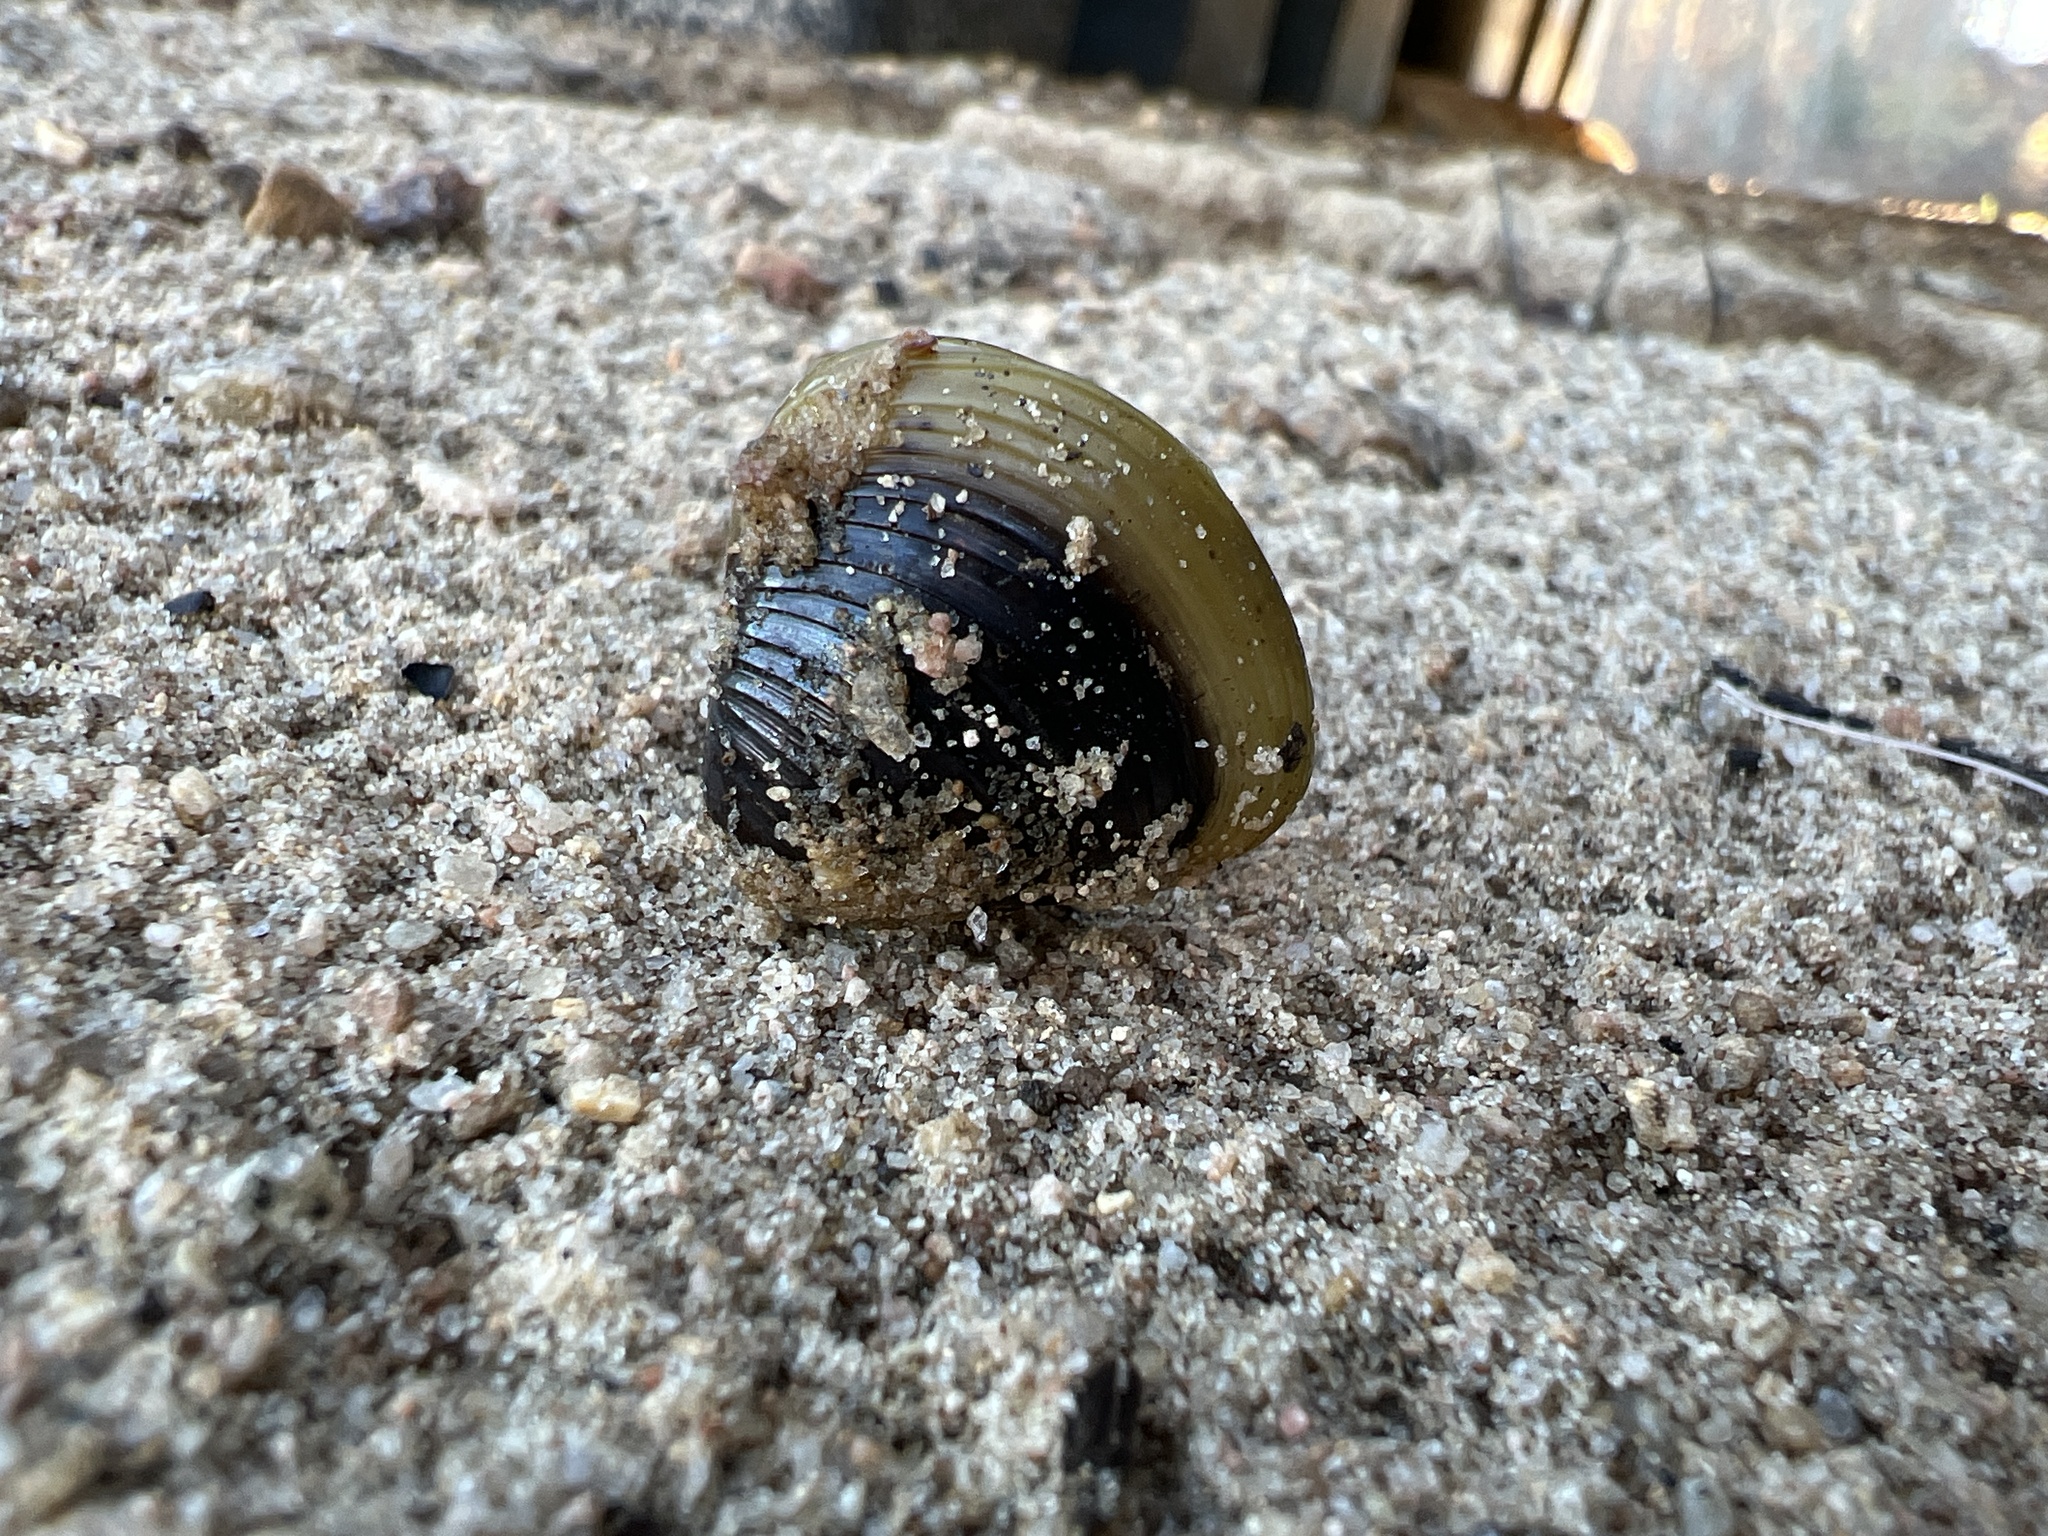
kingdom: Animalia
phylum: Mollusca
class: Bivalvia
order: Venerida
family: Cyrenidae
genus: Corbicula
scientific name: Corbicula fluminea
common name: Asian clam
